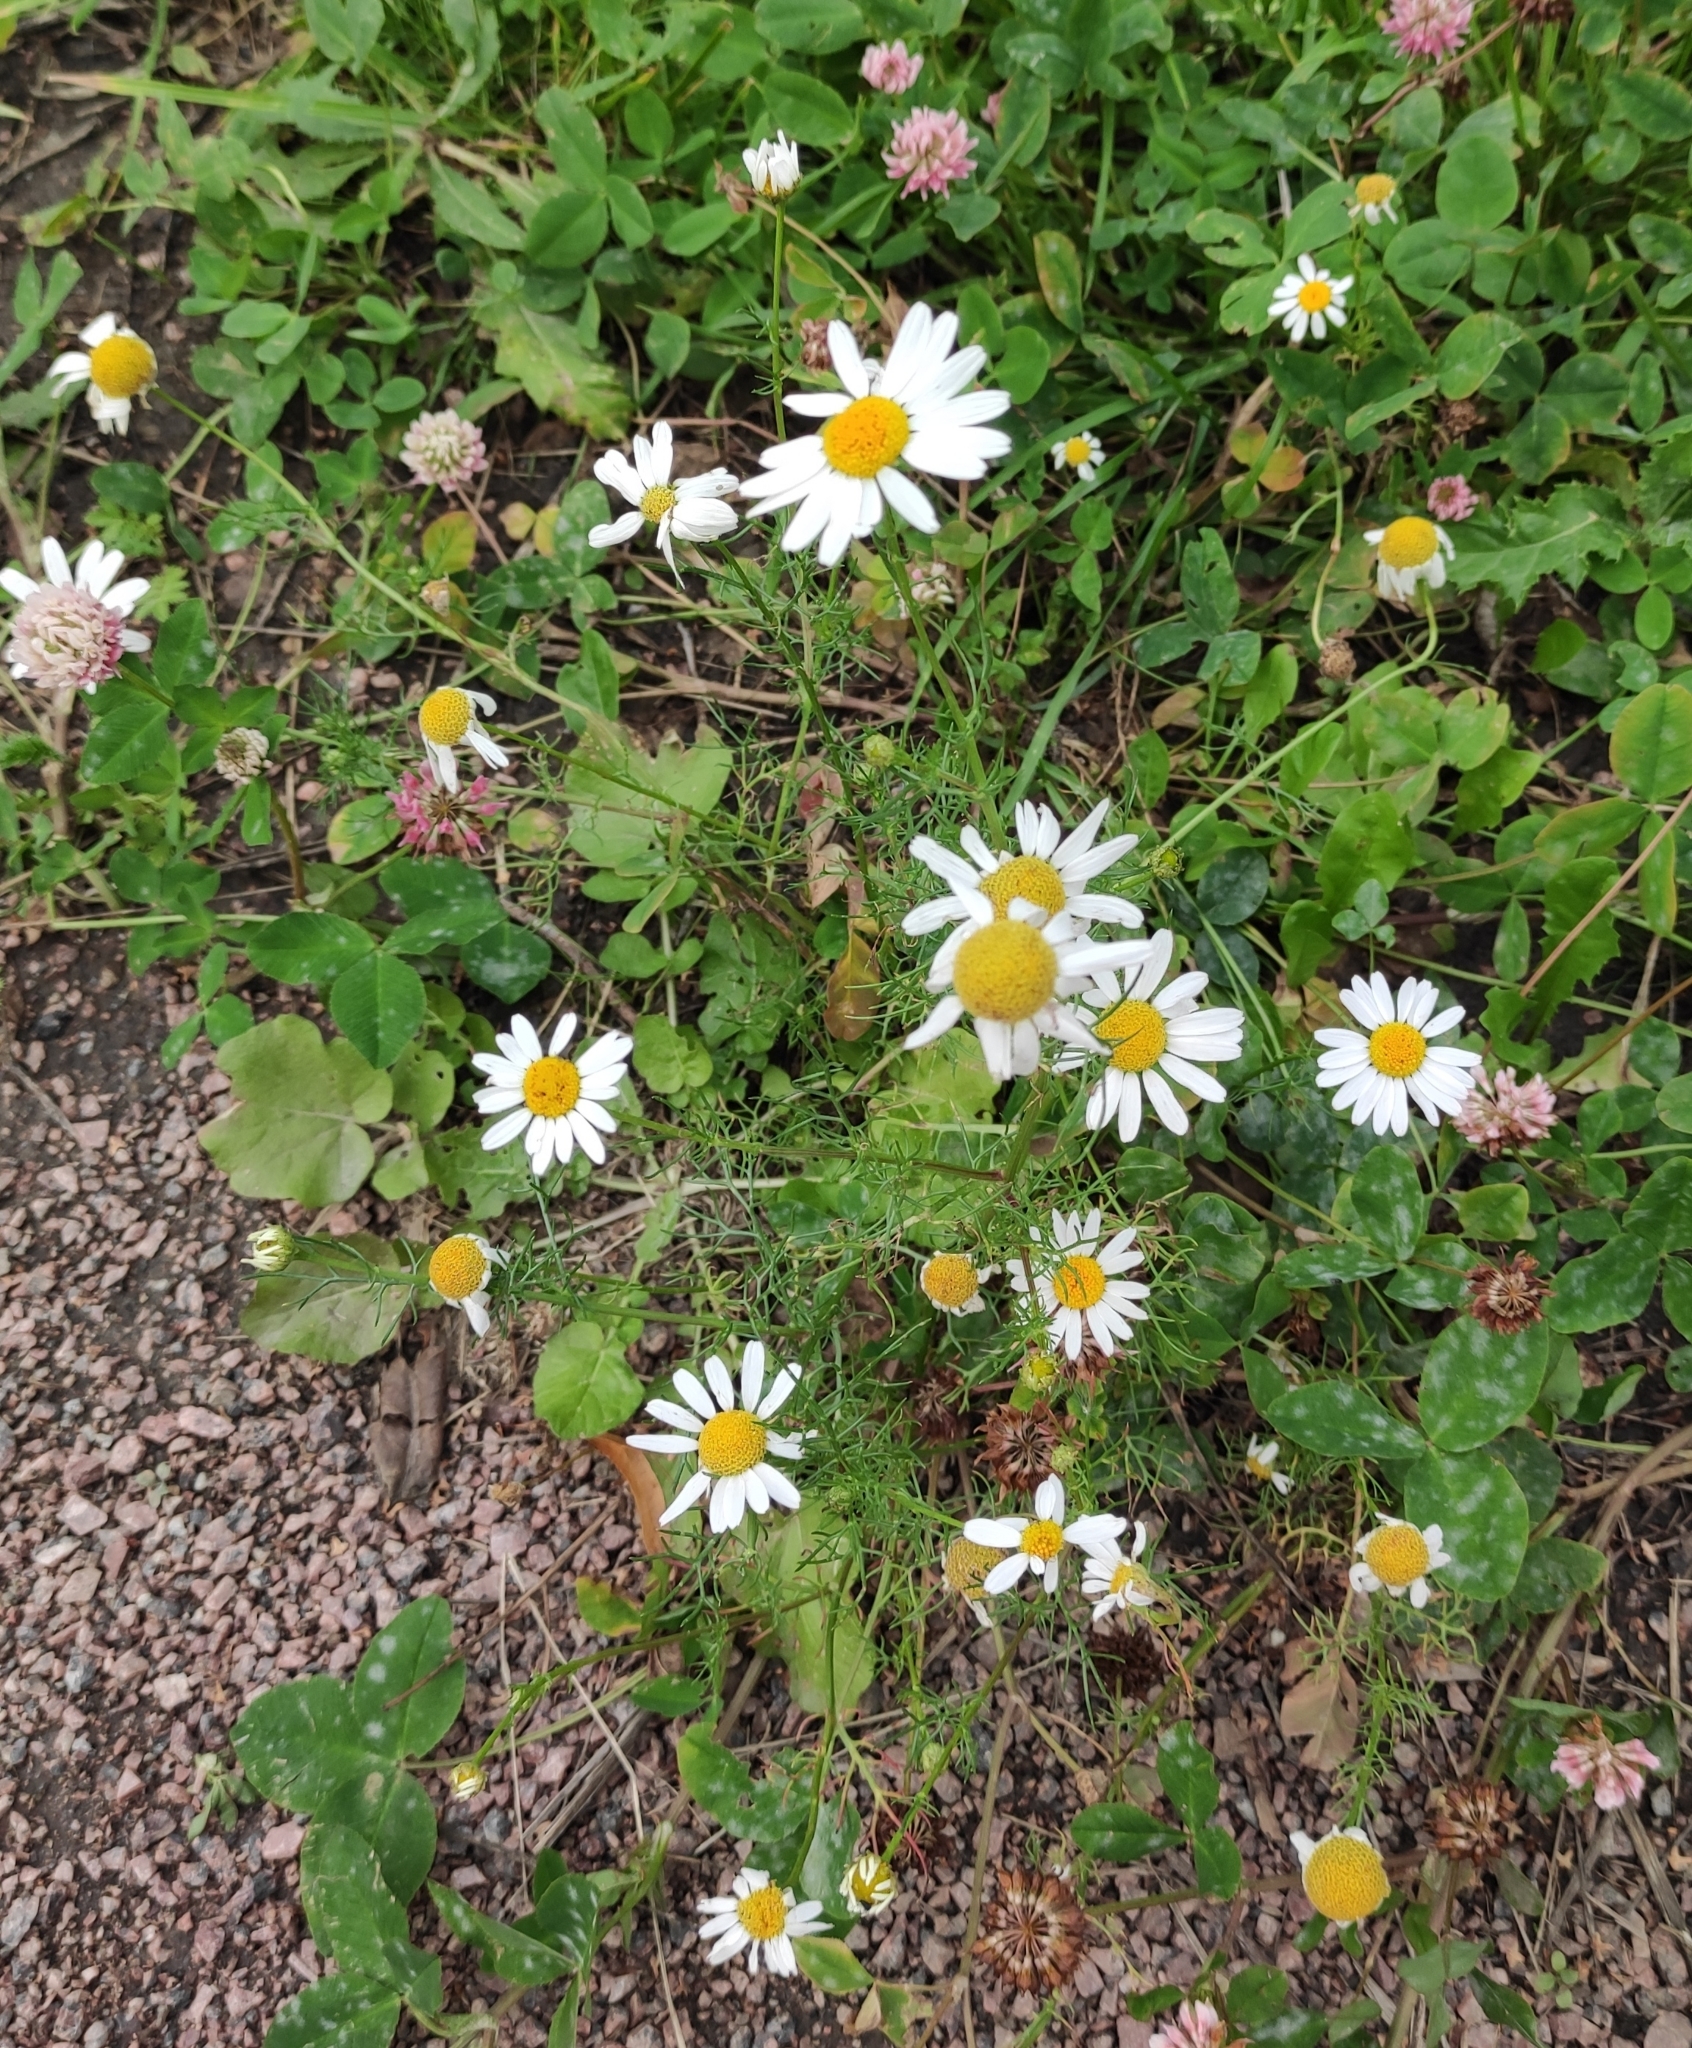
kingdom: Plantae
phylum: Tracheophyta
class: Magnoliopsida
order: Asterales
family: Asteraceae
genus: Tripleurospermum
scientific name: Tripleurospermum inodorum
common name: Scentless mayweed
